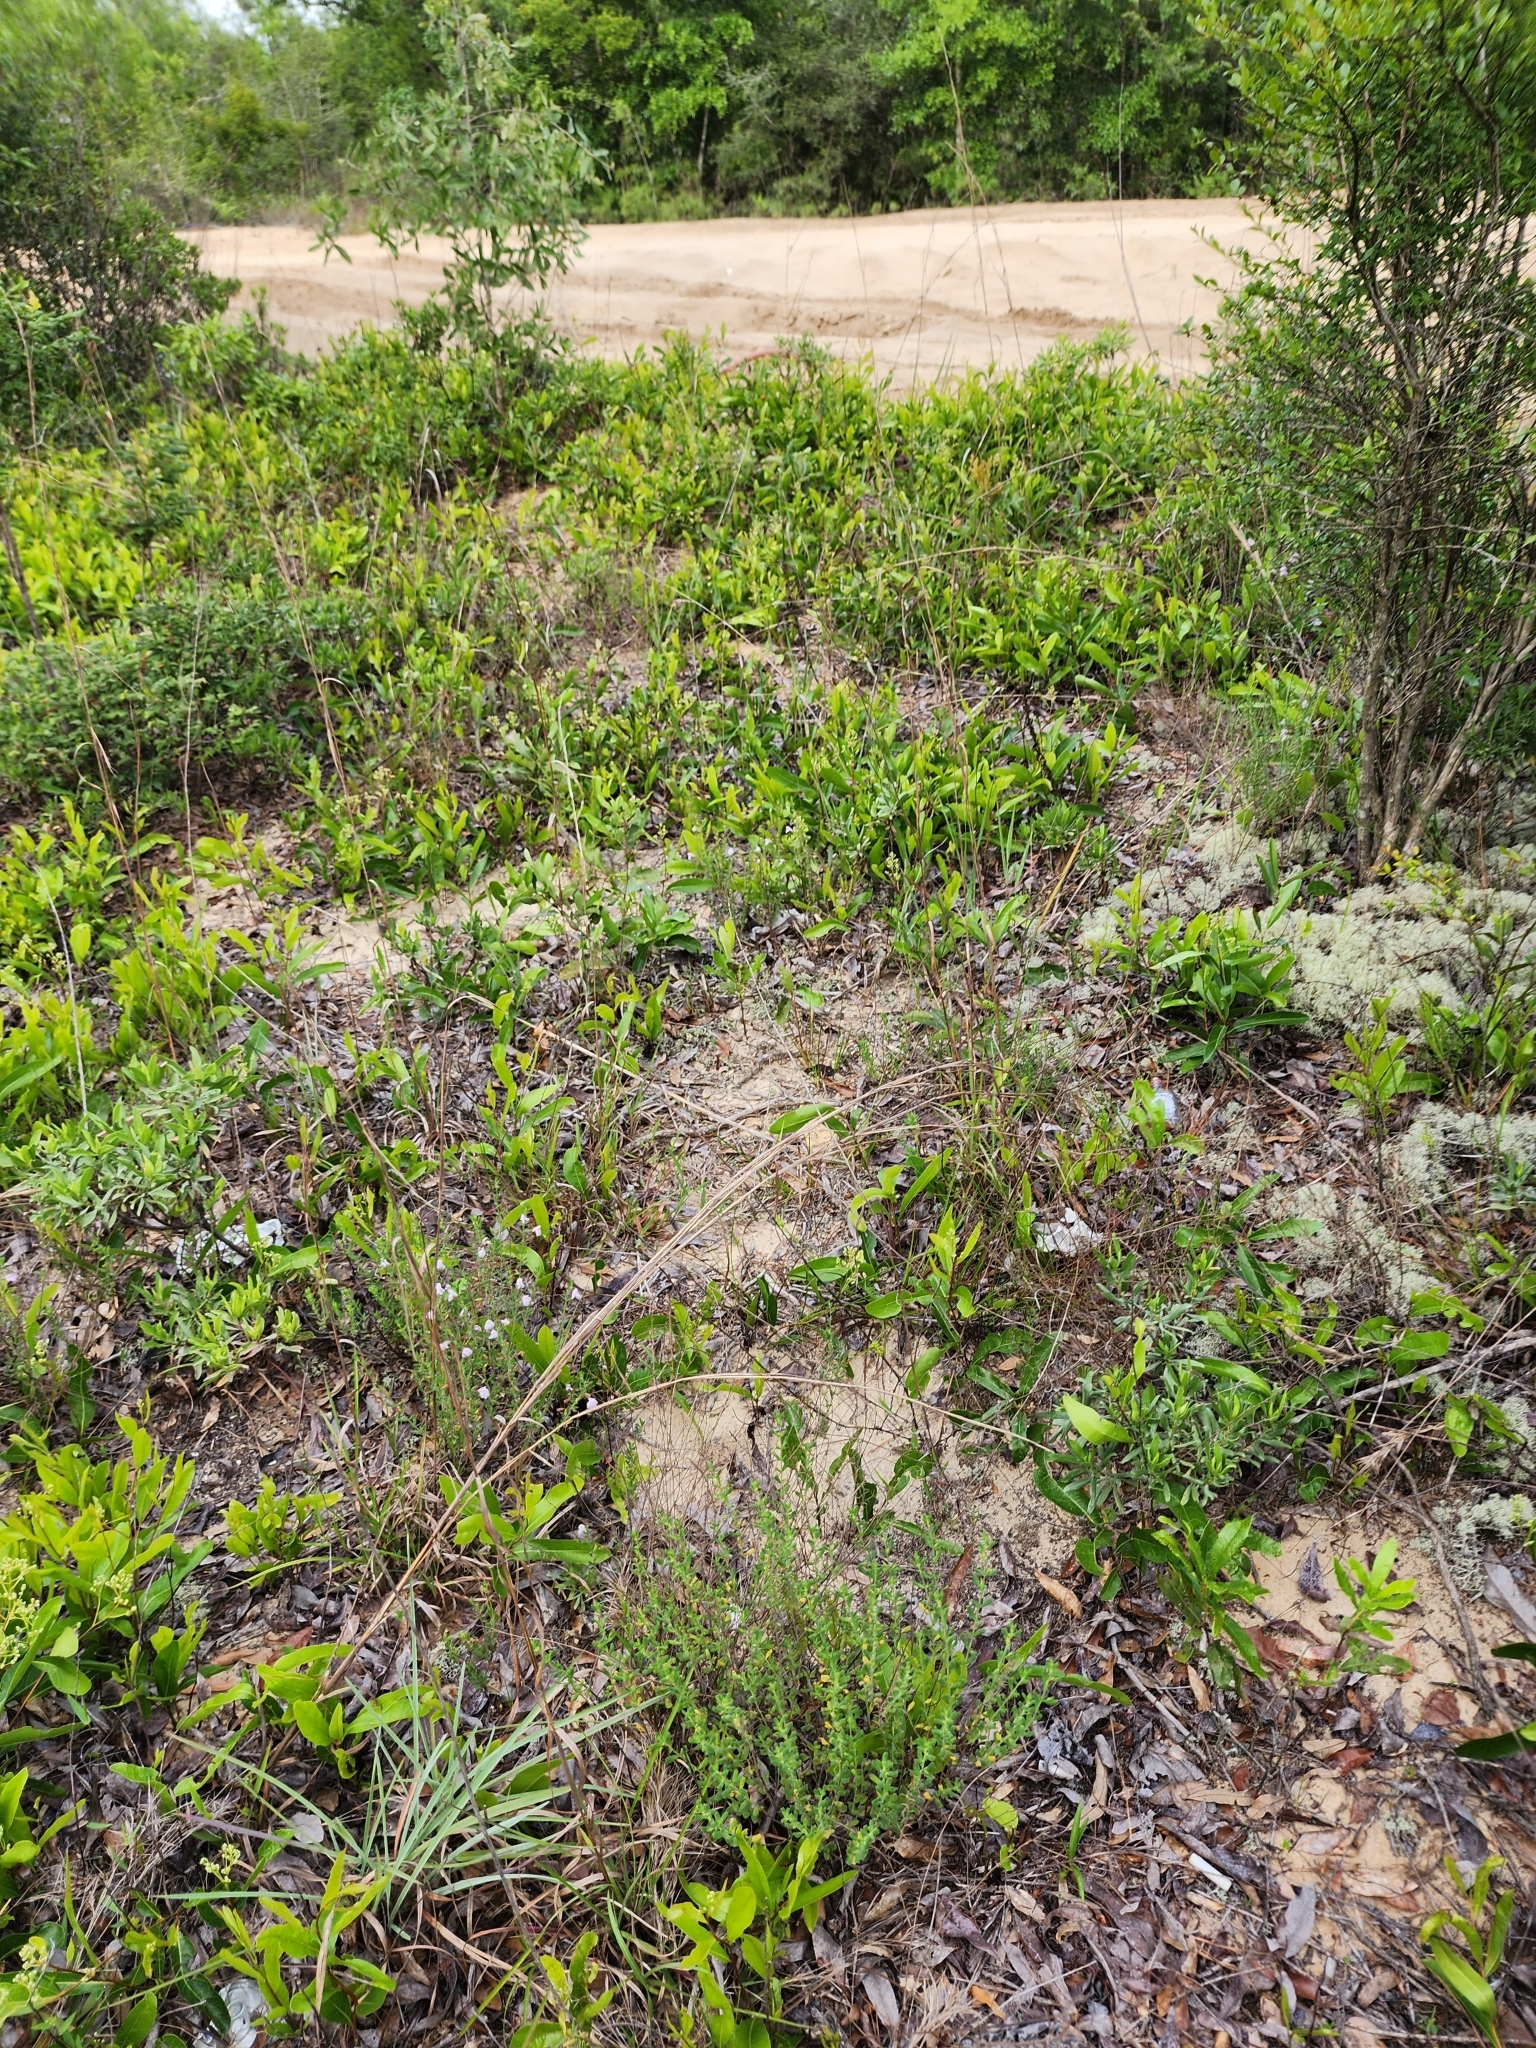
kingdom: Plantae
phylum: Tracheophyta
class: Magnoliopsida
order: Lamiales
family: Lamiaceae
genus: Clinopodium
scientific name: Clinopodium dentatum
